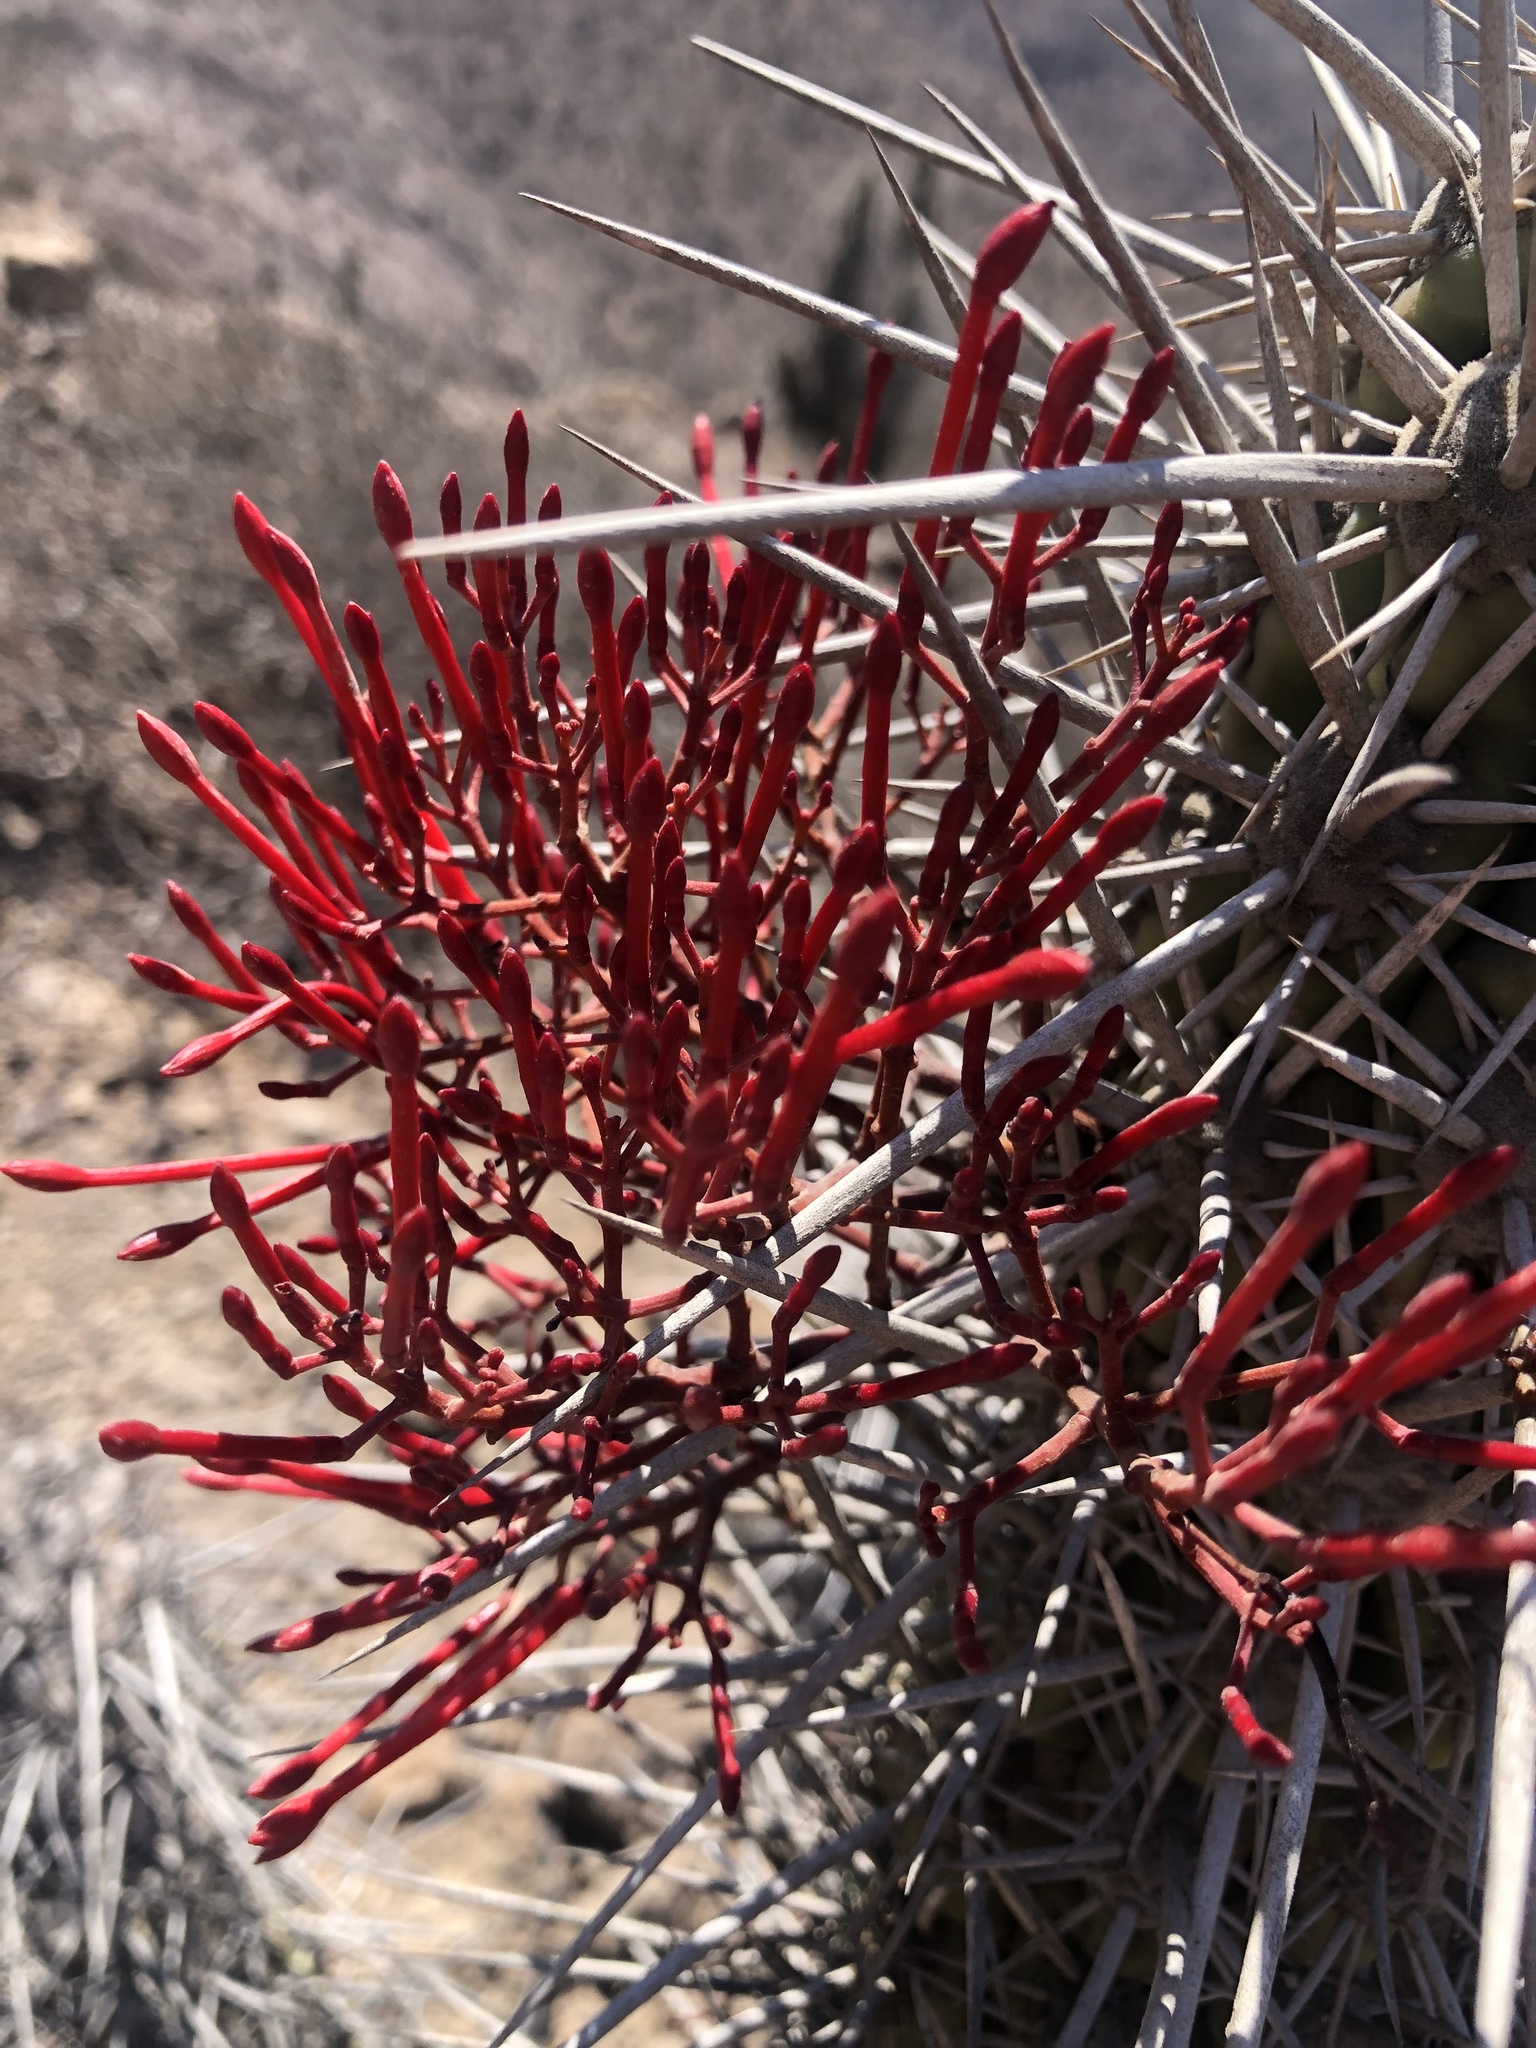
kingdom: Plantae
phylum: Tracheophyta
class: Magnoliopsida
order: Santalales
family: Loranthaceae
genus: Tristerix
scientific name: Tristerix aphyllus
